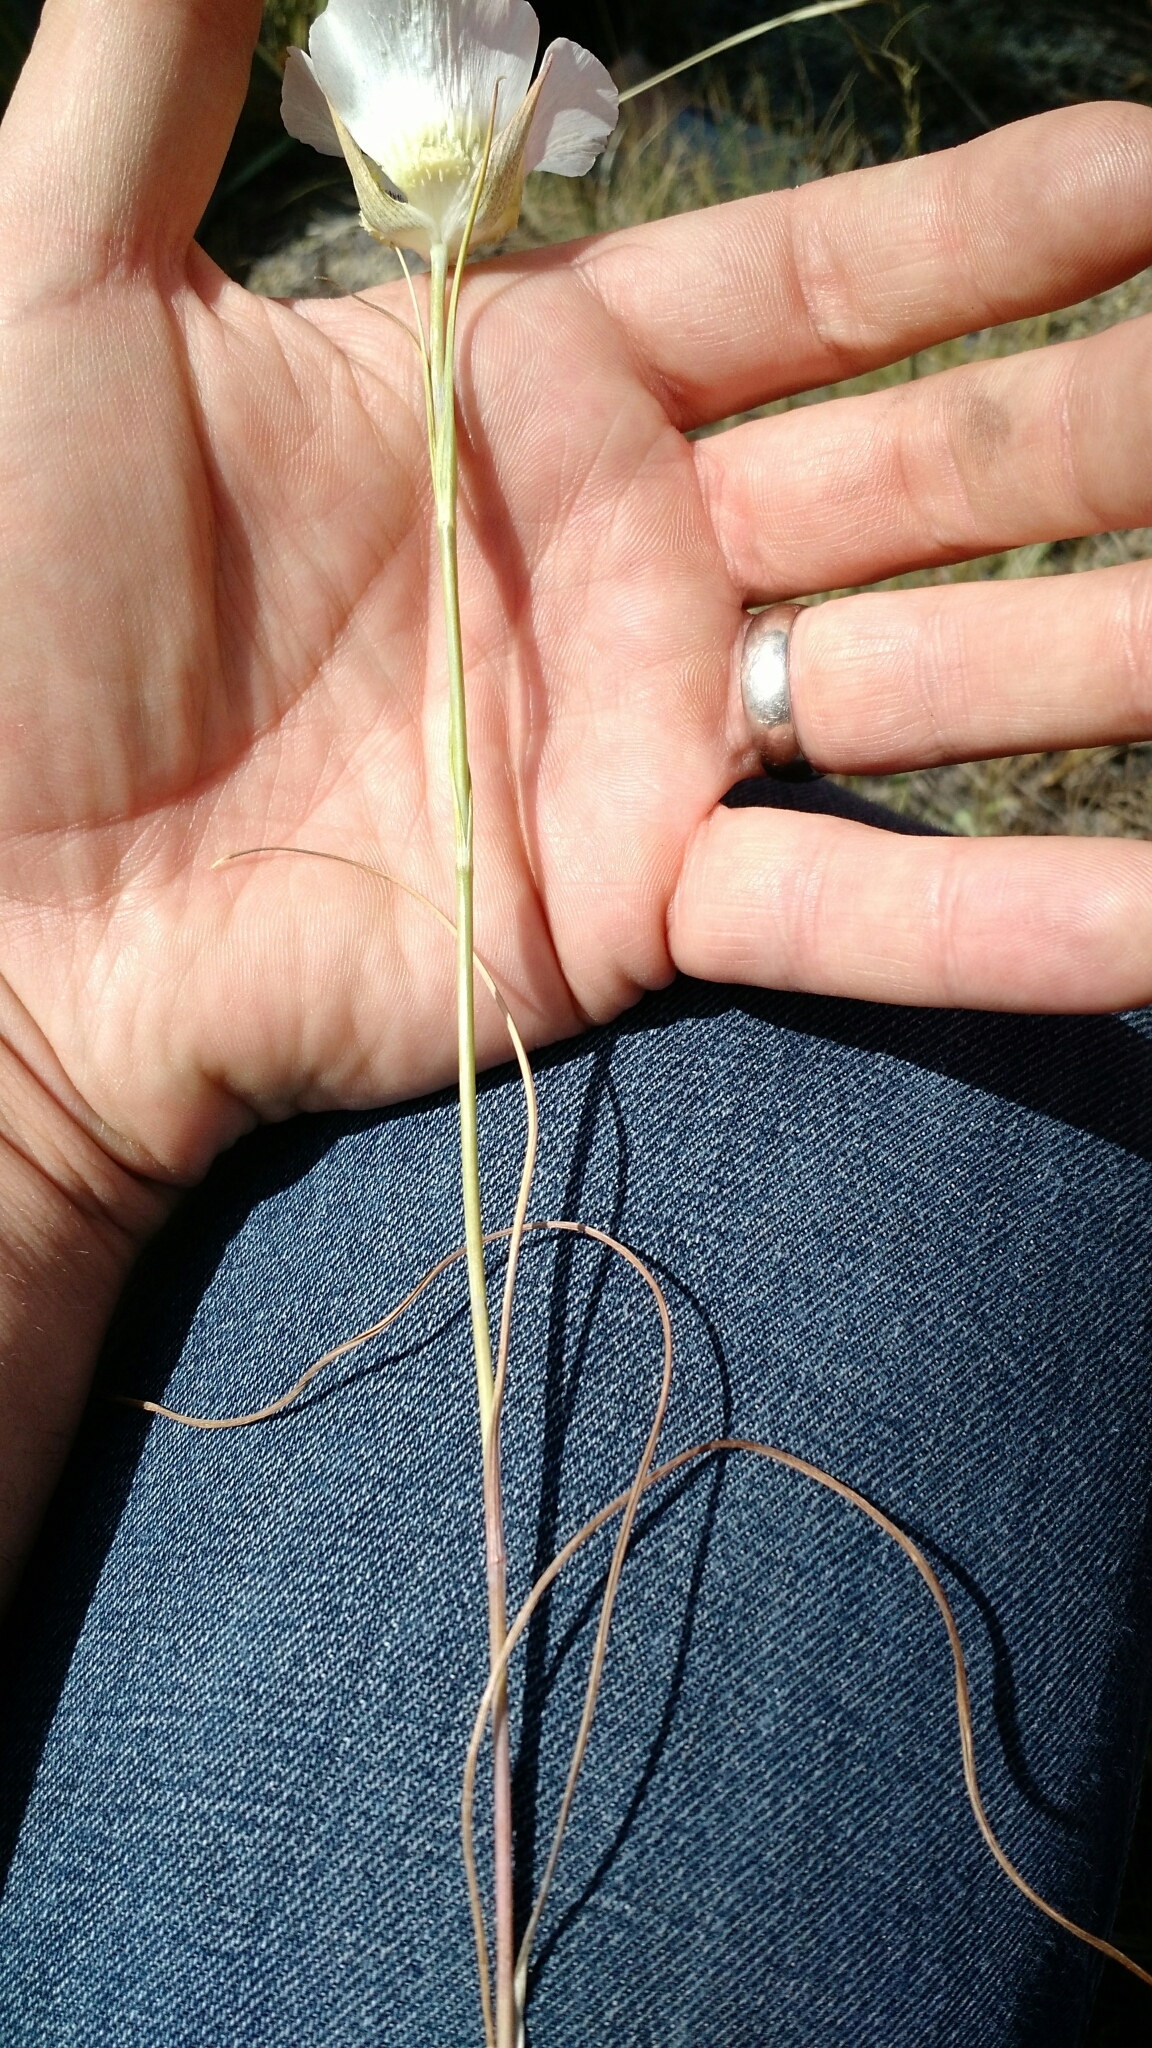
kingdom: Plantae
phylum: Tracheophyta
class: Liliopsida
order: Liliales
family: Liliaceae
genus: Calochortus
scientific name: Calochortus gunnisonii
